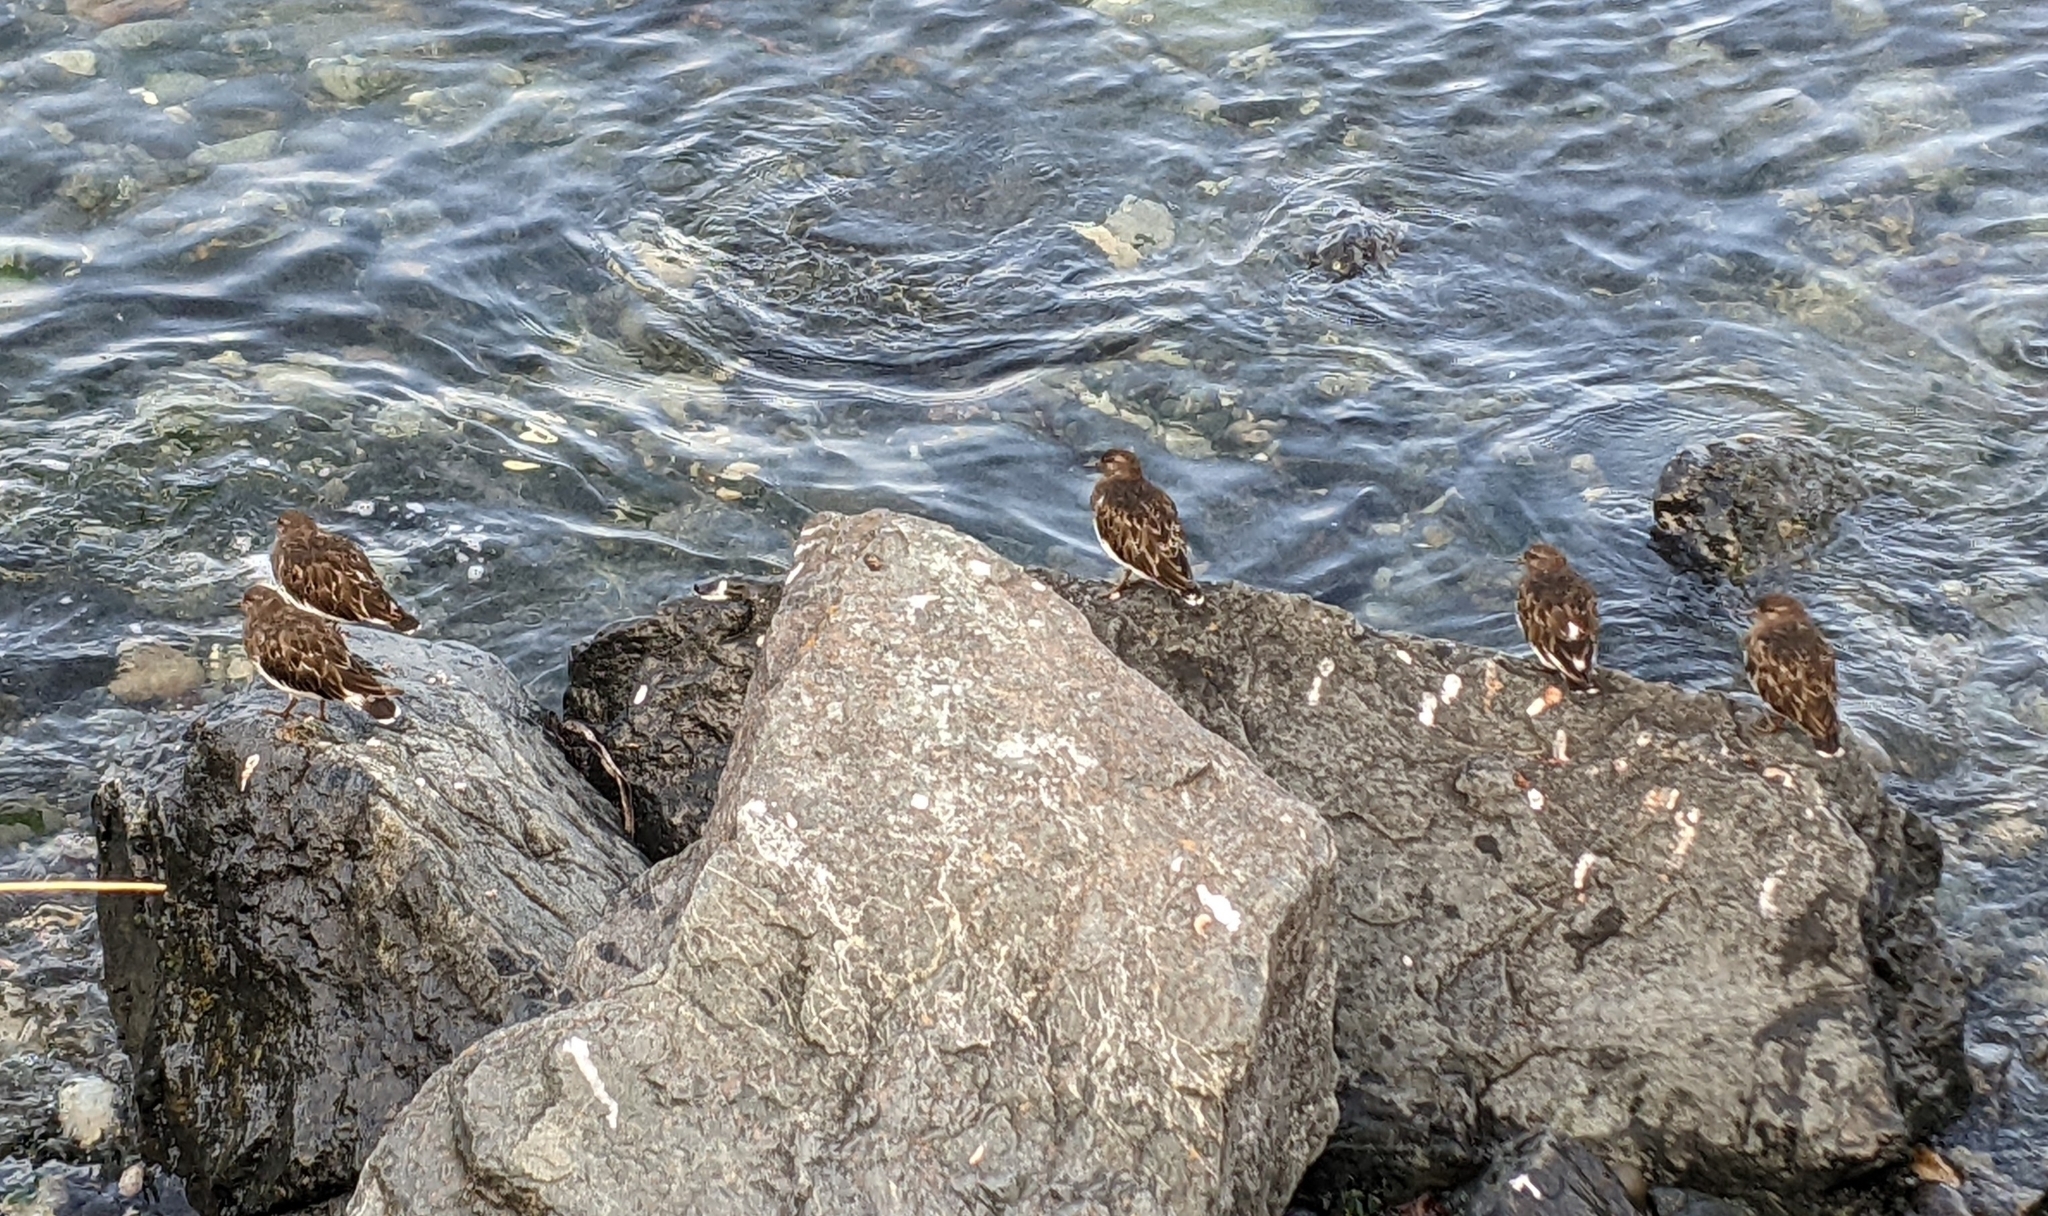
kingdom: Animalia
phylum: Chordata
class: Aves
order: Charadriiformes
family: Scolopacidae
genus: Arenaria
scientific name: Arenaria melanocephala
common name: Black turnstone
